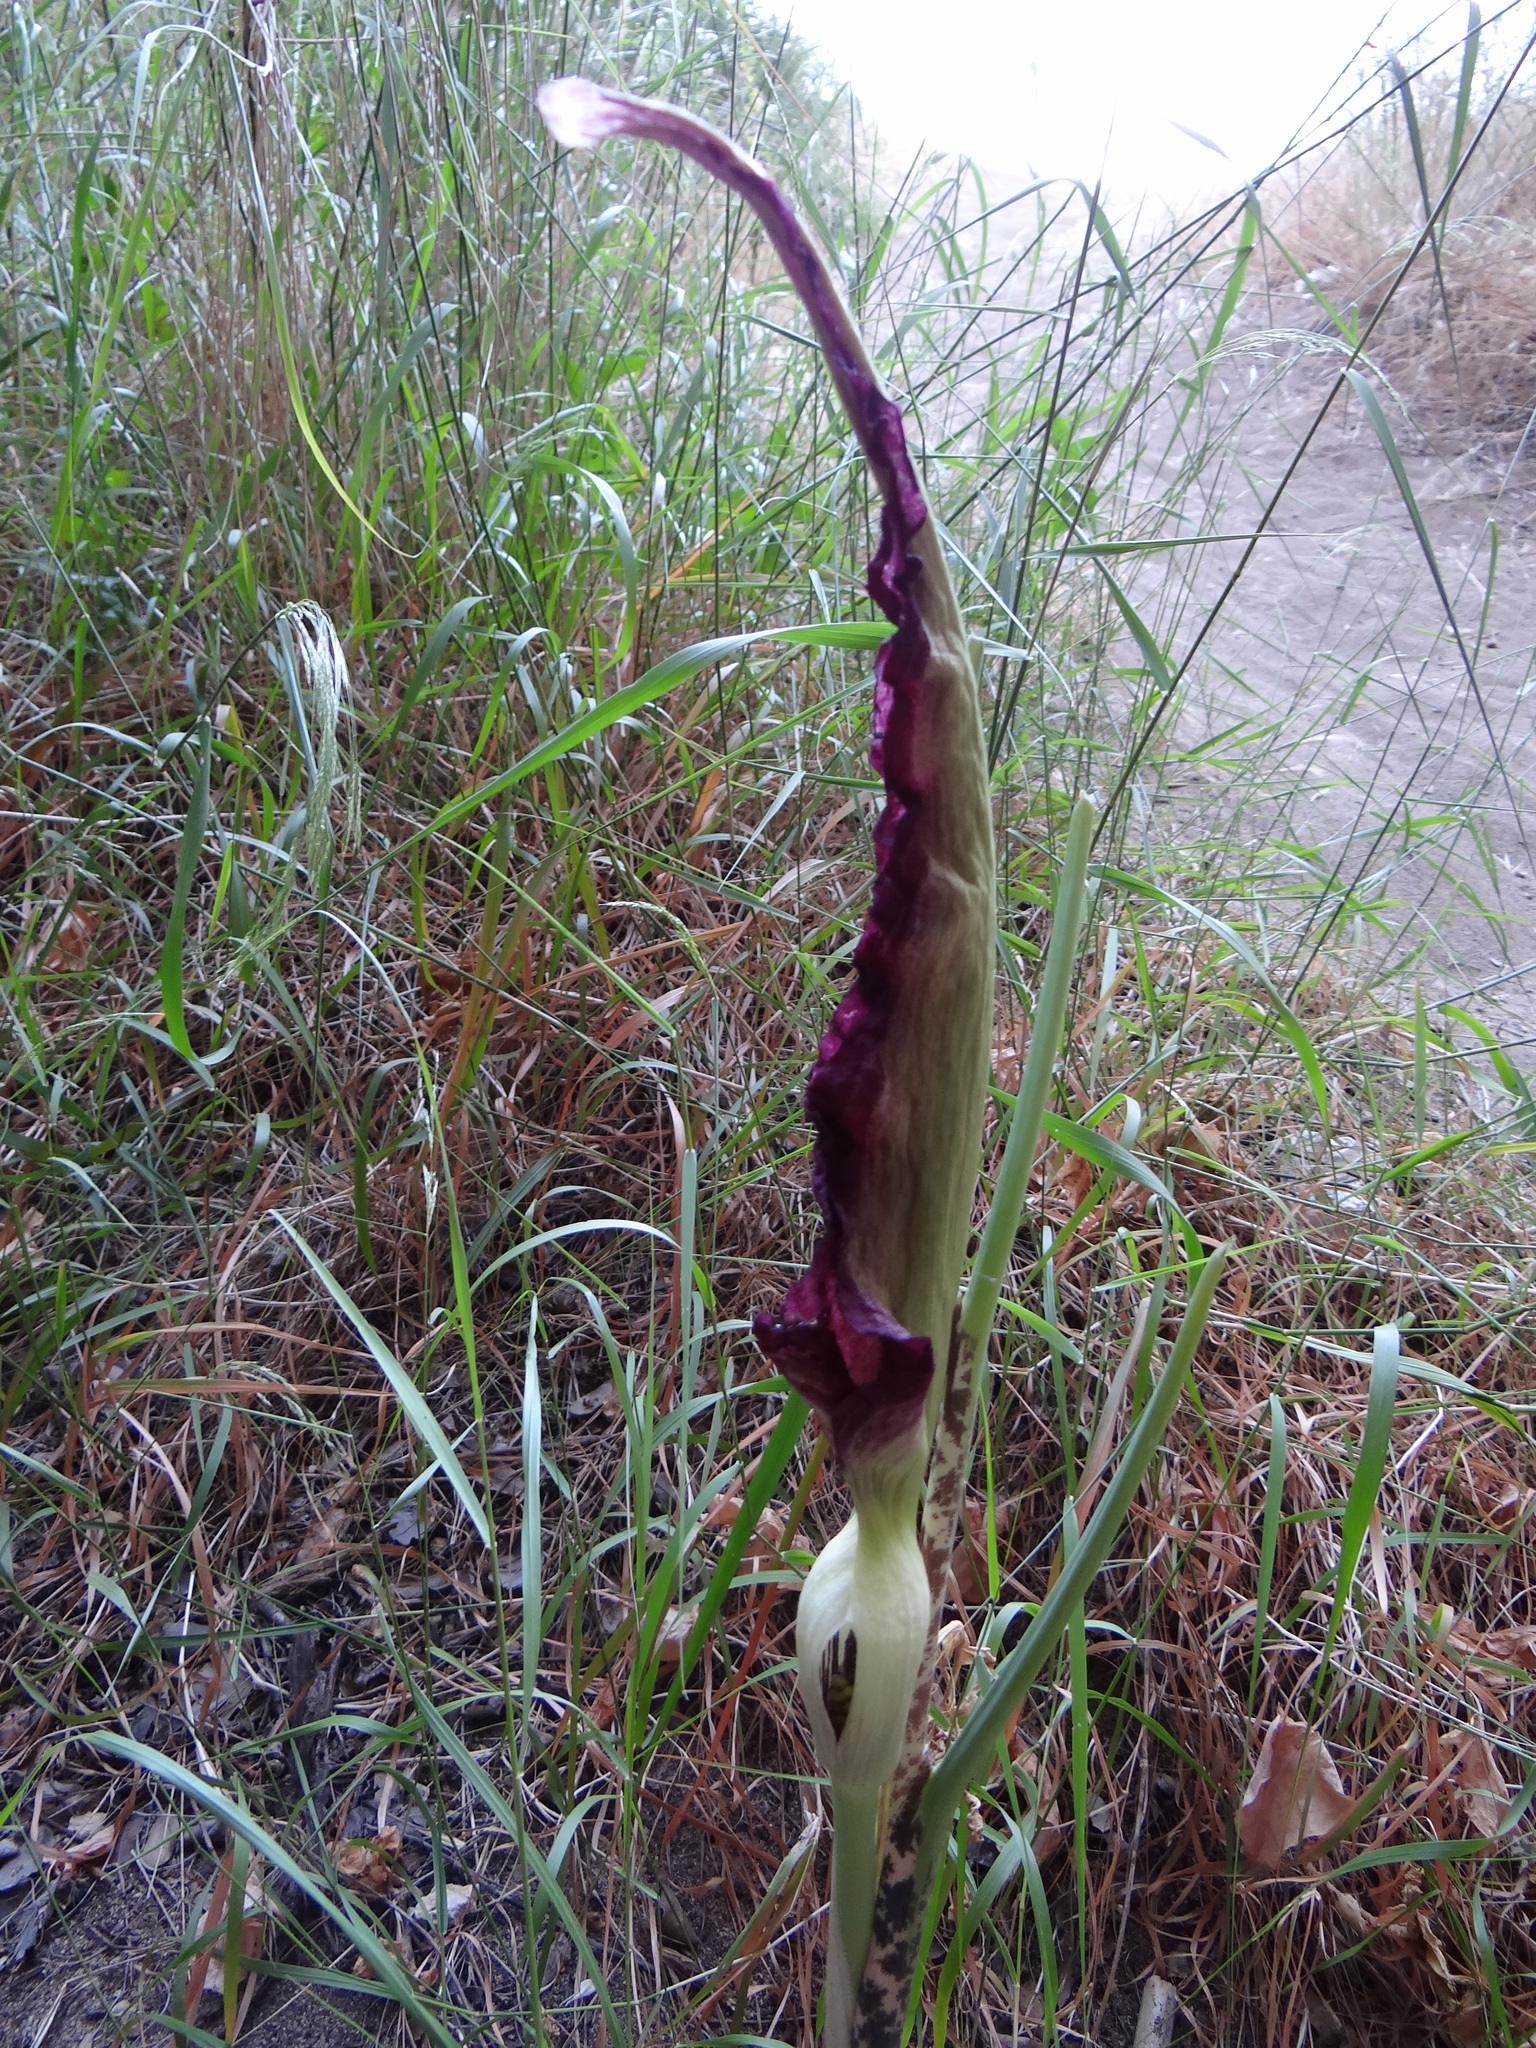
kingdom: Plantae
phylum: Tracheophyta
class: Liliopsida
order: Alismatales
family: Araceae
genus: Dracunculus
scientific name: Dracunculus vulgaris
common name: Dragon arum
